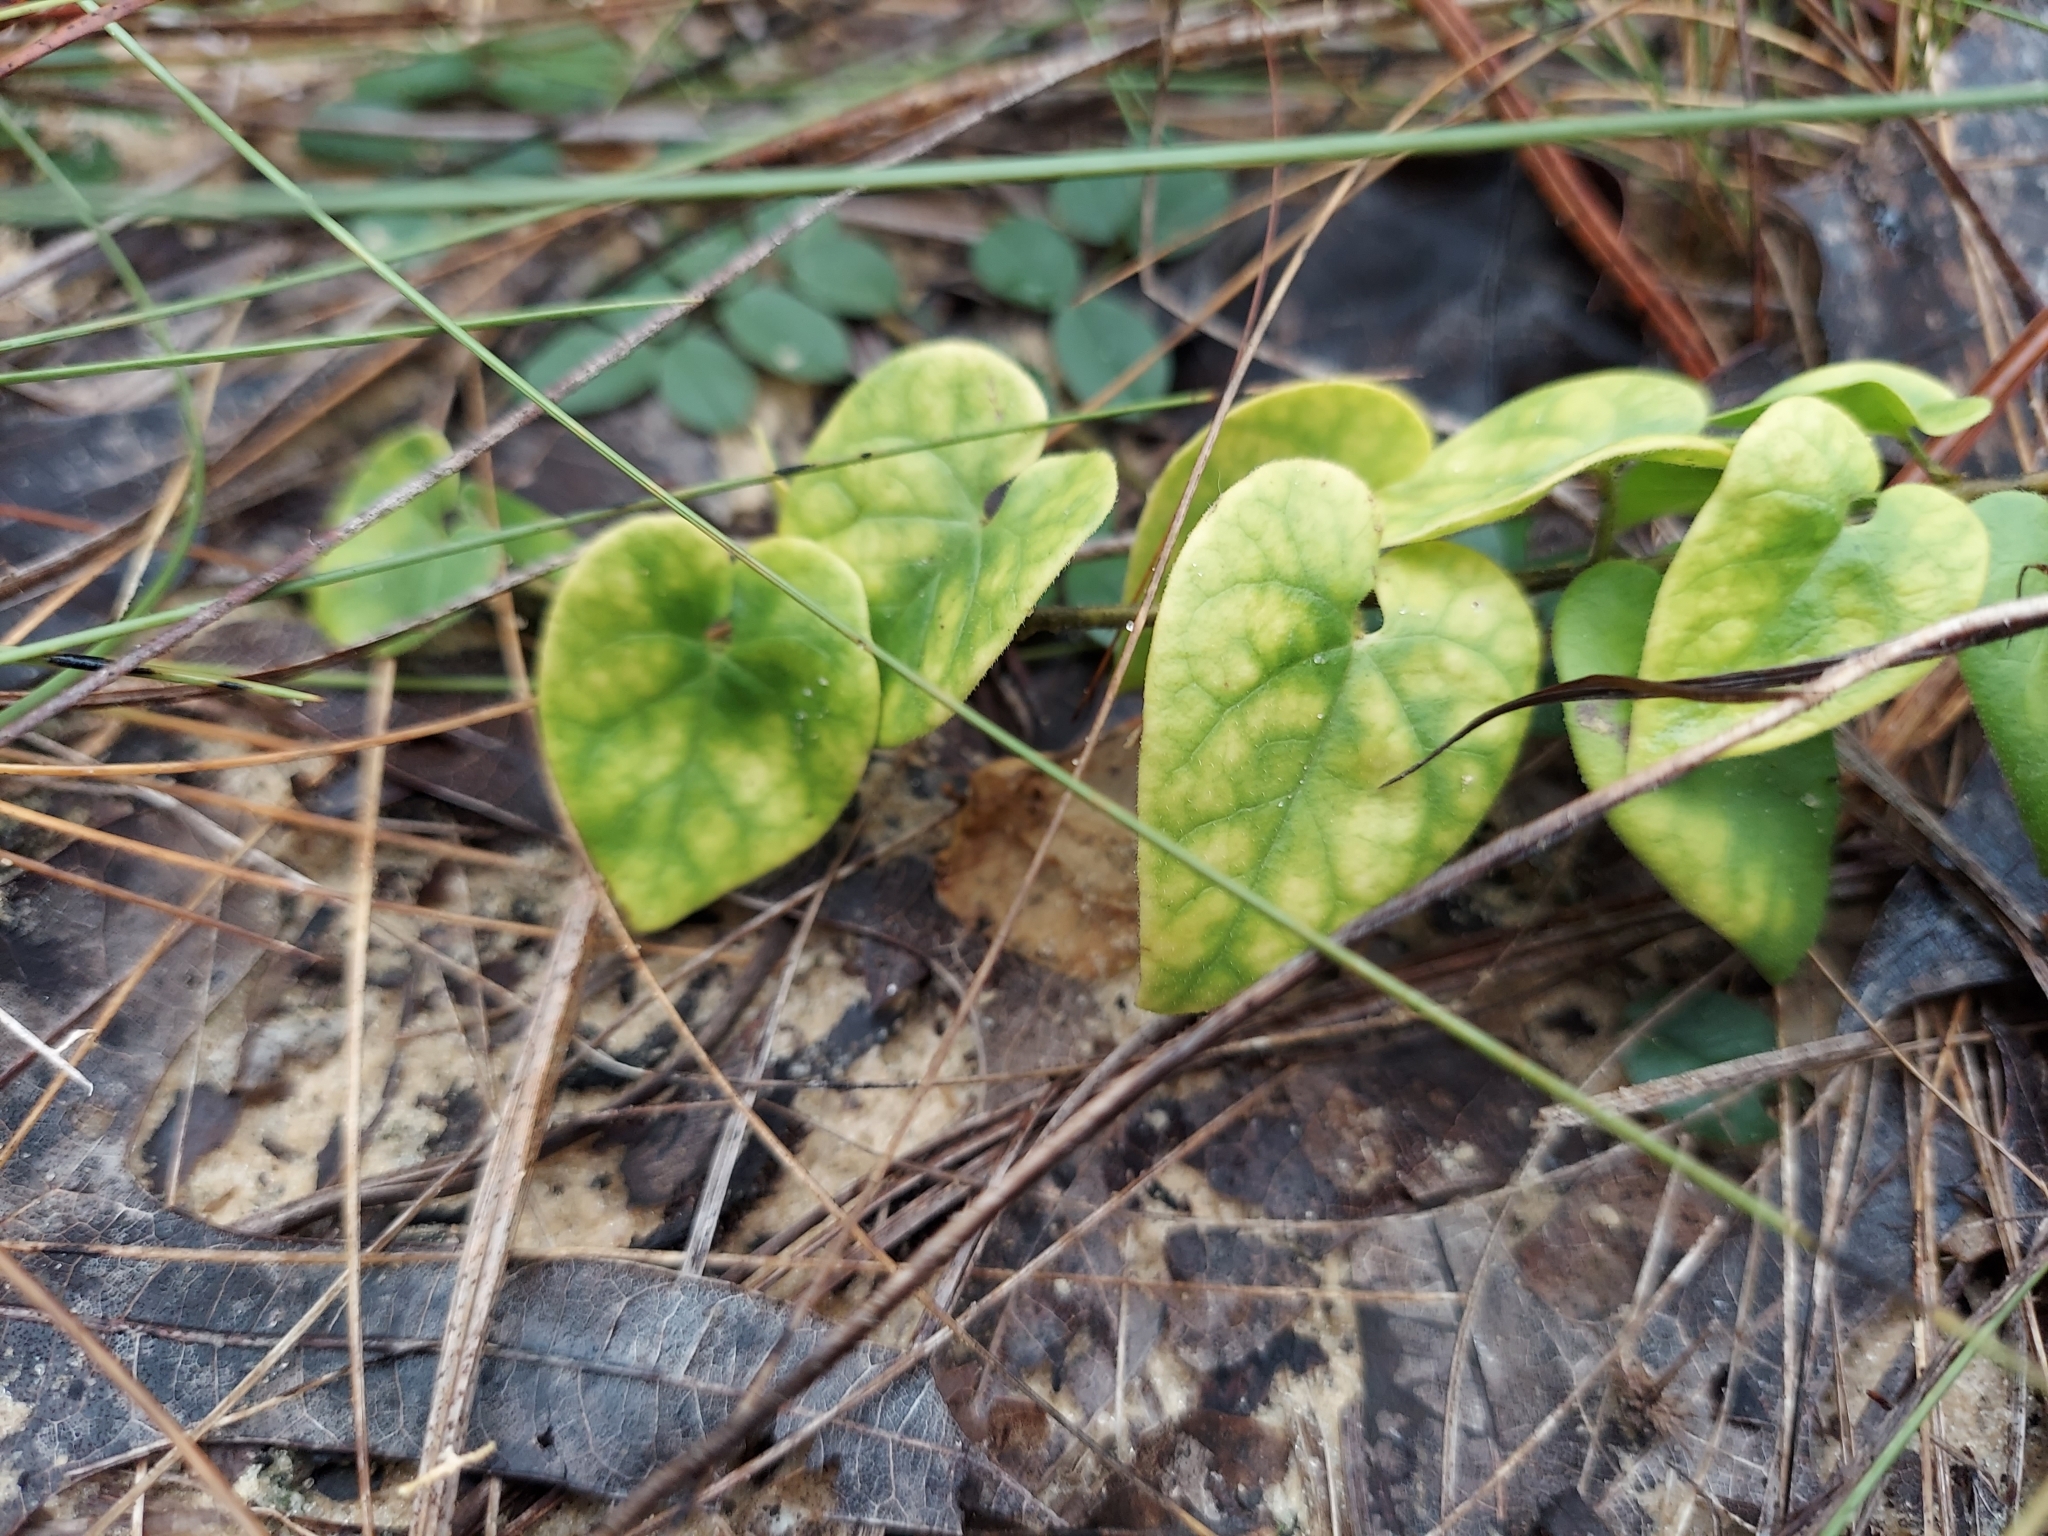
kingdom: Plantae
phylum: Tracheophyta
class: Magnoliopsida
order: Gentianales
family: Apocynaceae
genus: Chthamalia
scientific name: Chthamalia pubiflora
